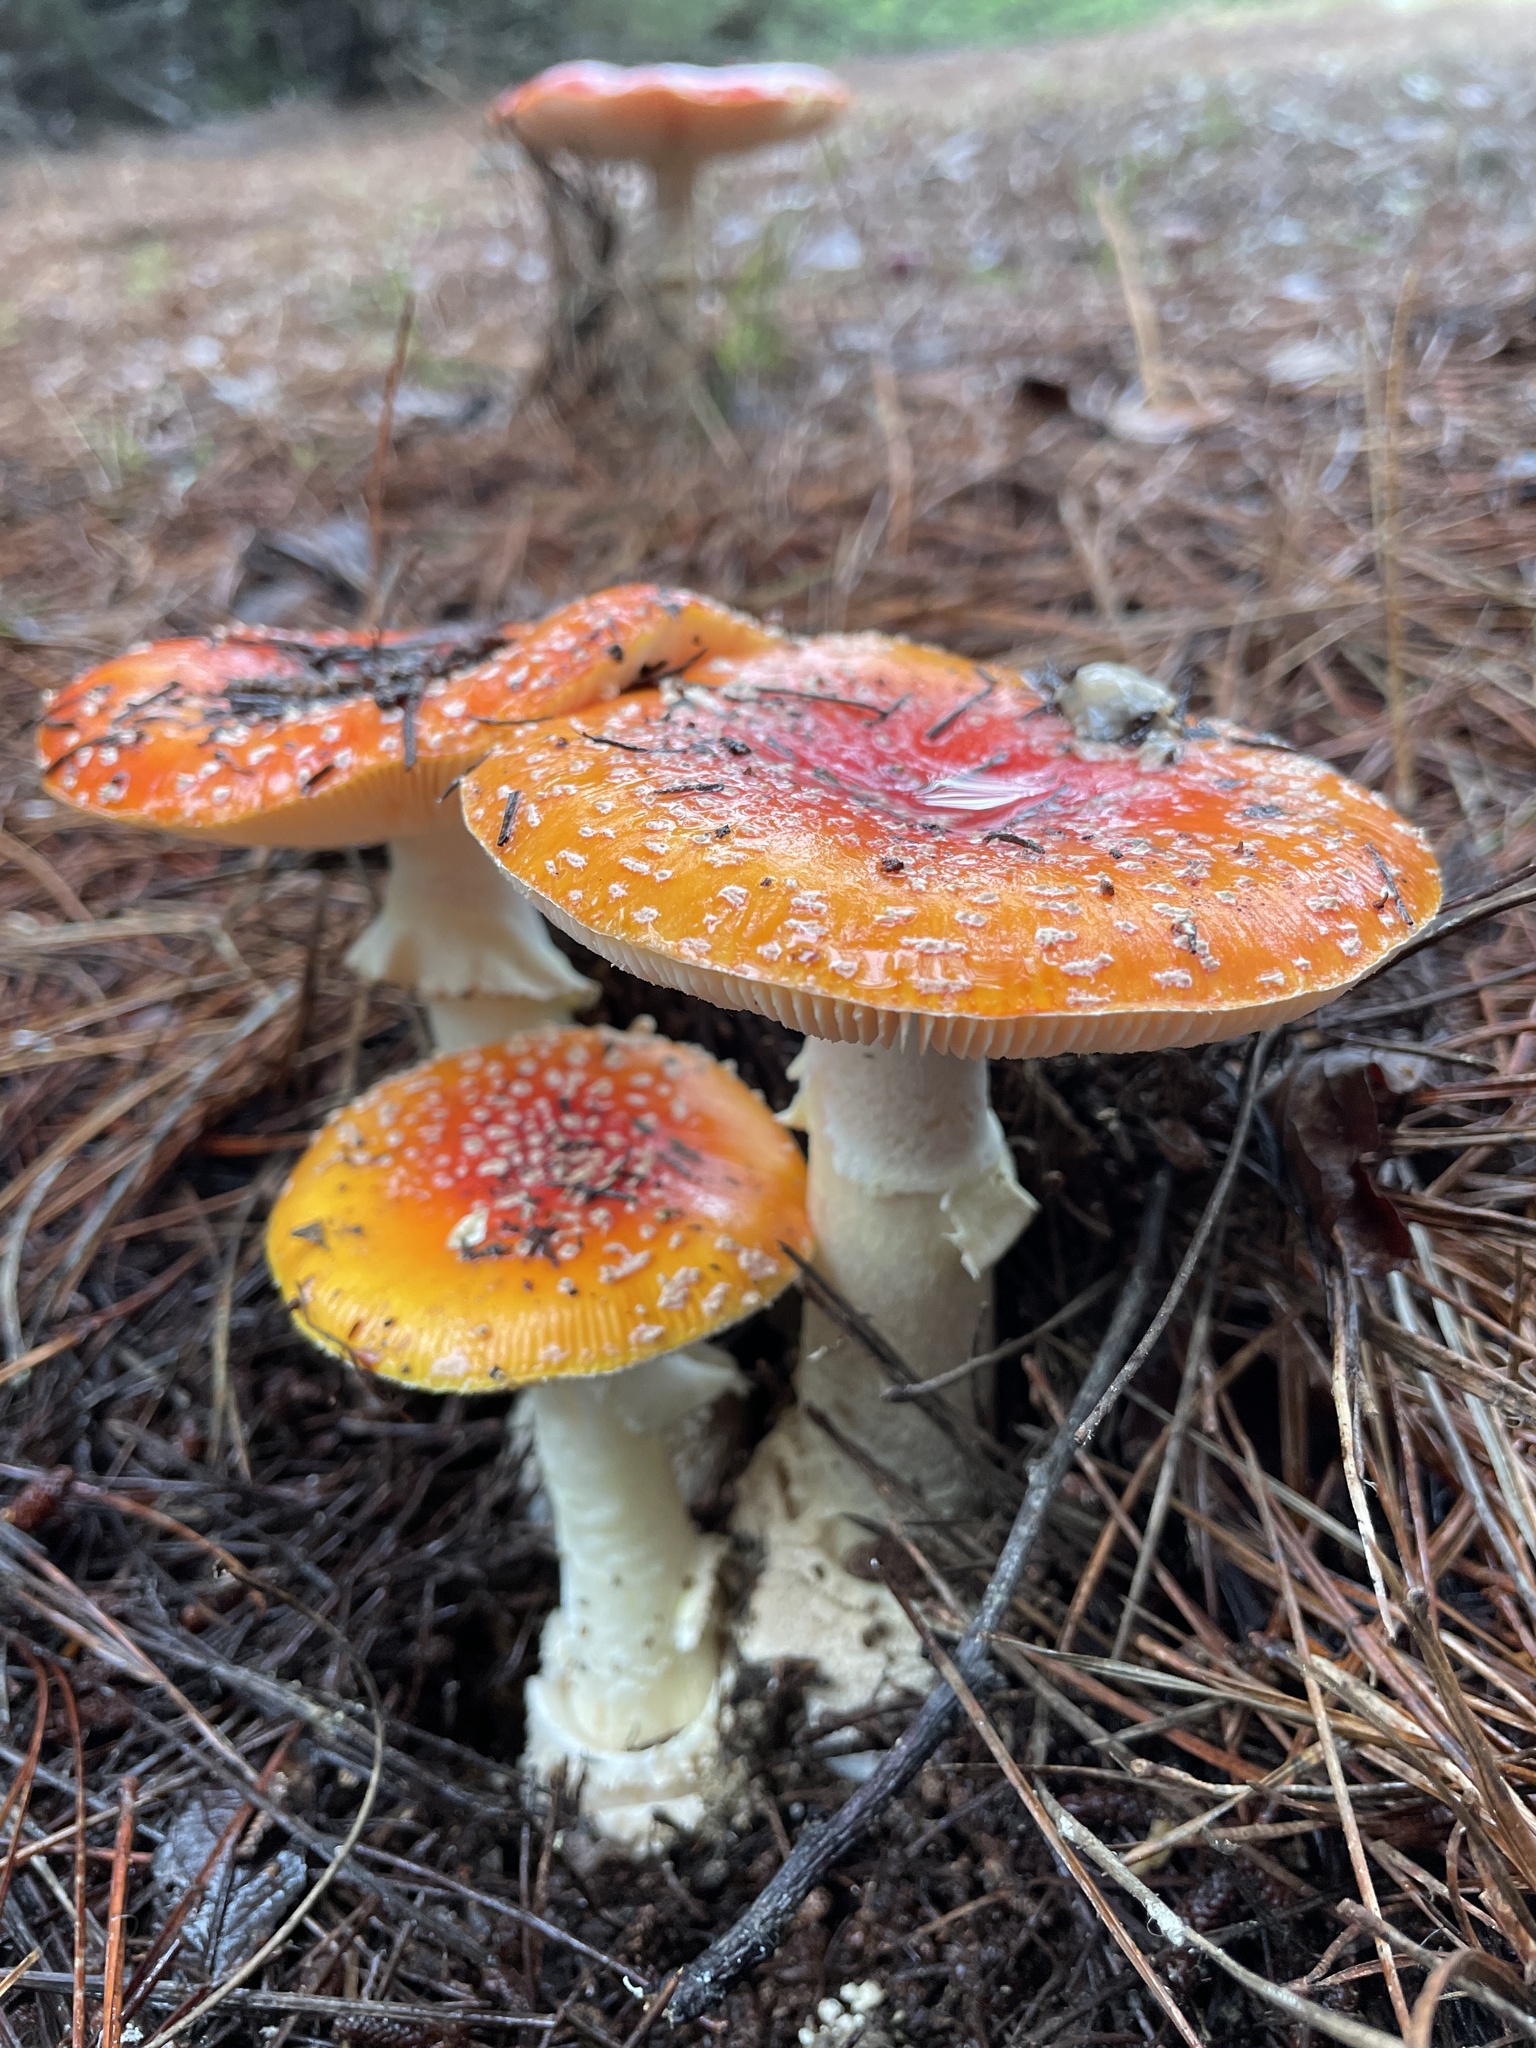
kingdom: Fungi
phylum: Basidiomycota
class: Agaricomycetes
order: Agaricales
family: Amanitaceae
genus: Amanita
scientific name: Amanita muscaria
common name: Fly agaric
